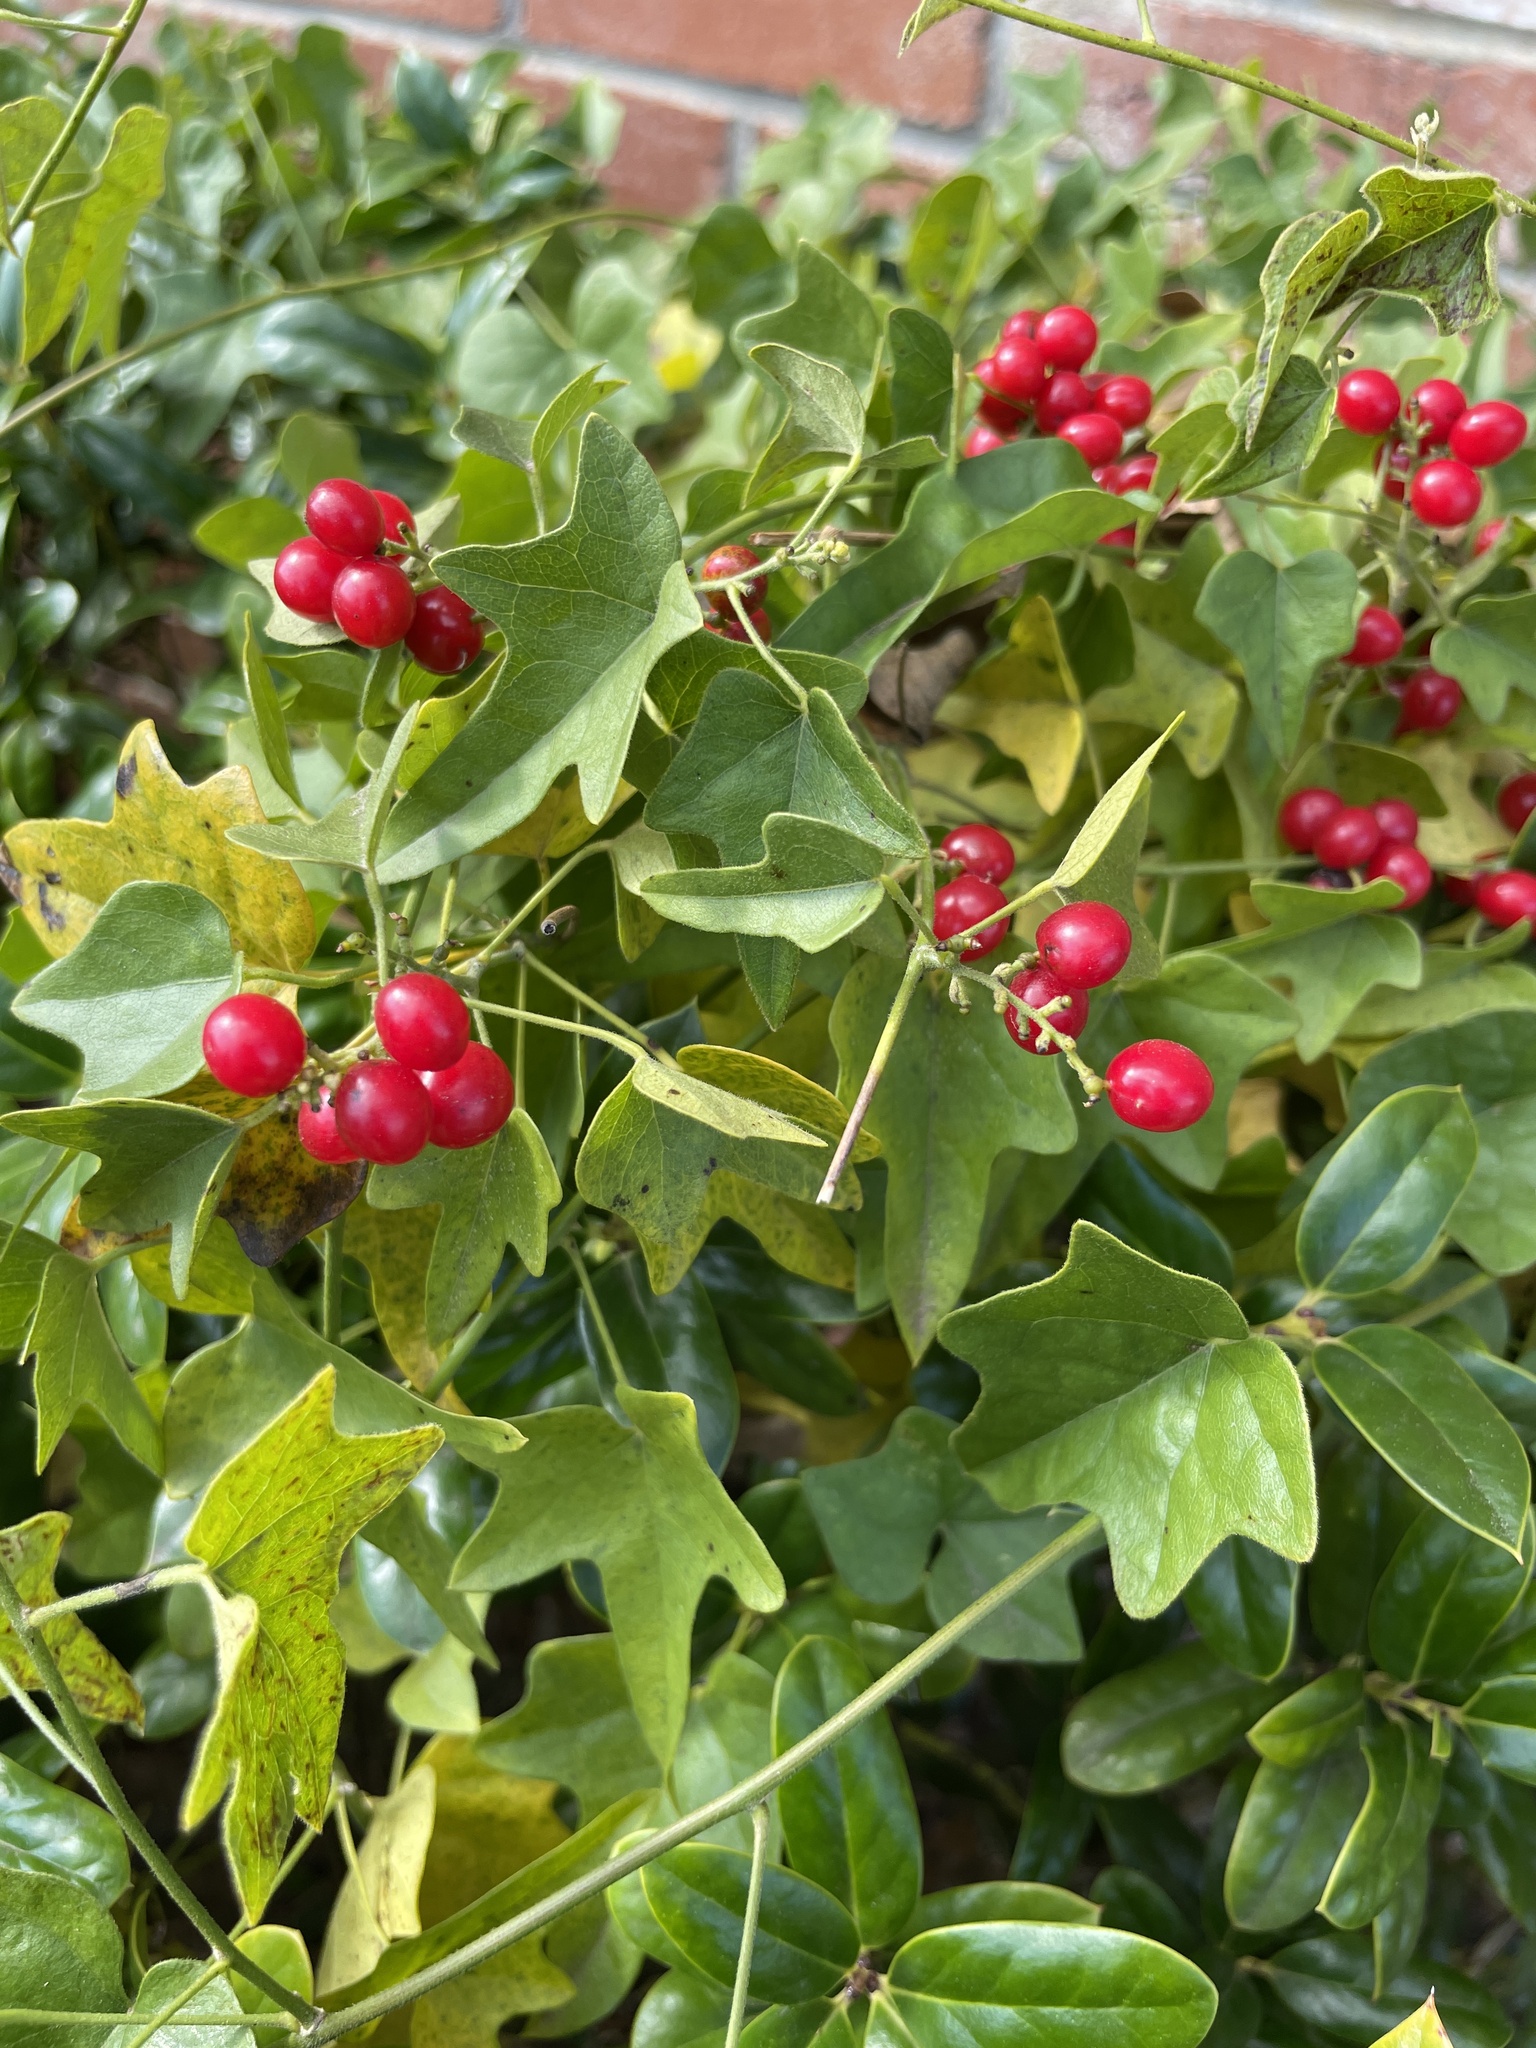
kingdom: Plantae
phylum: Tracheophyta
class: Magnoliopsida
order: Ranunculales
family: Menispermaceae
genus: Cocculus
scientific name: Cocculus carolinus
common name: Carolina moonseed
